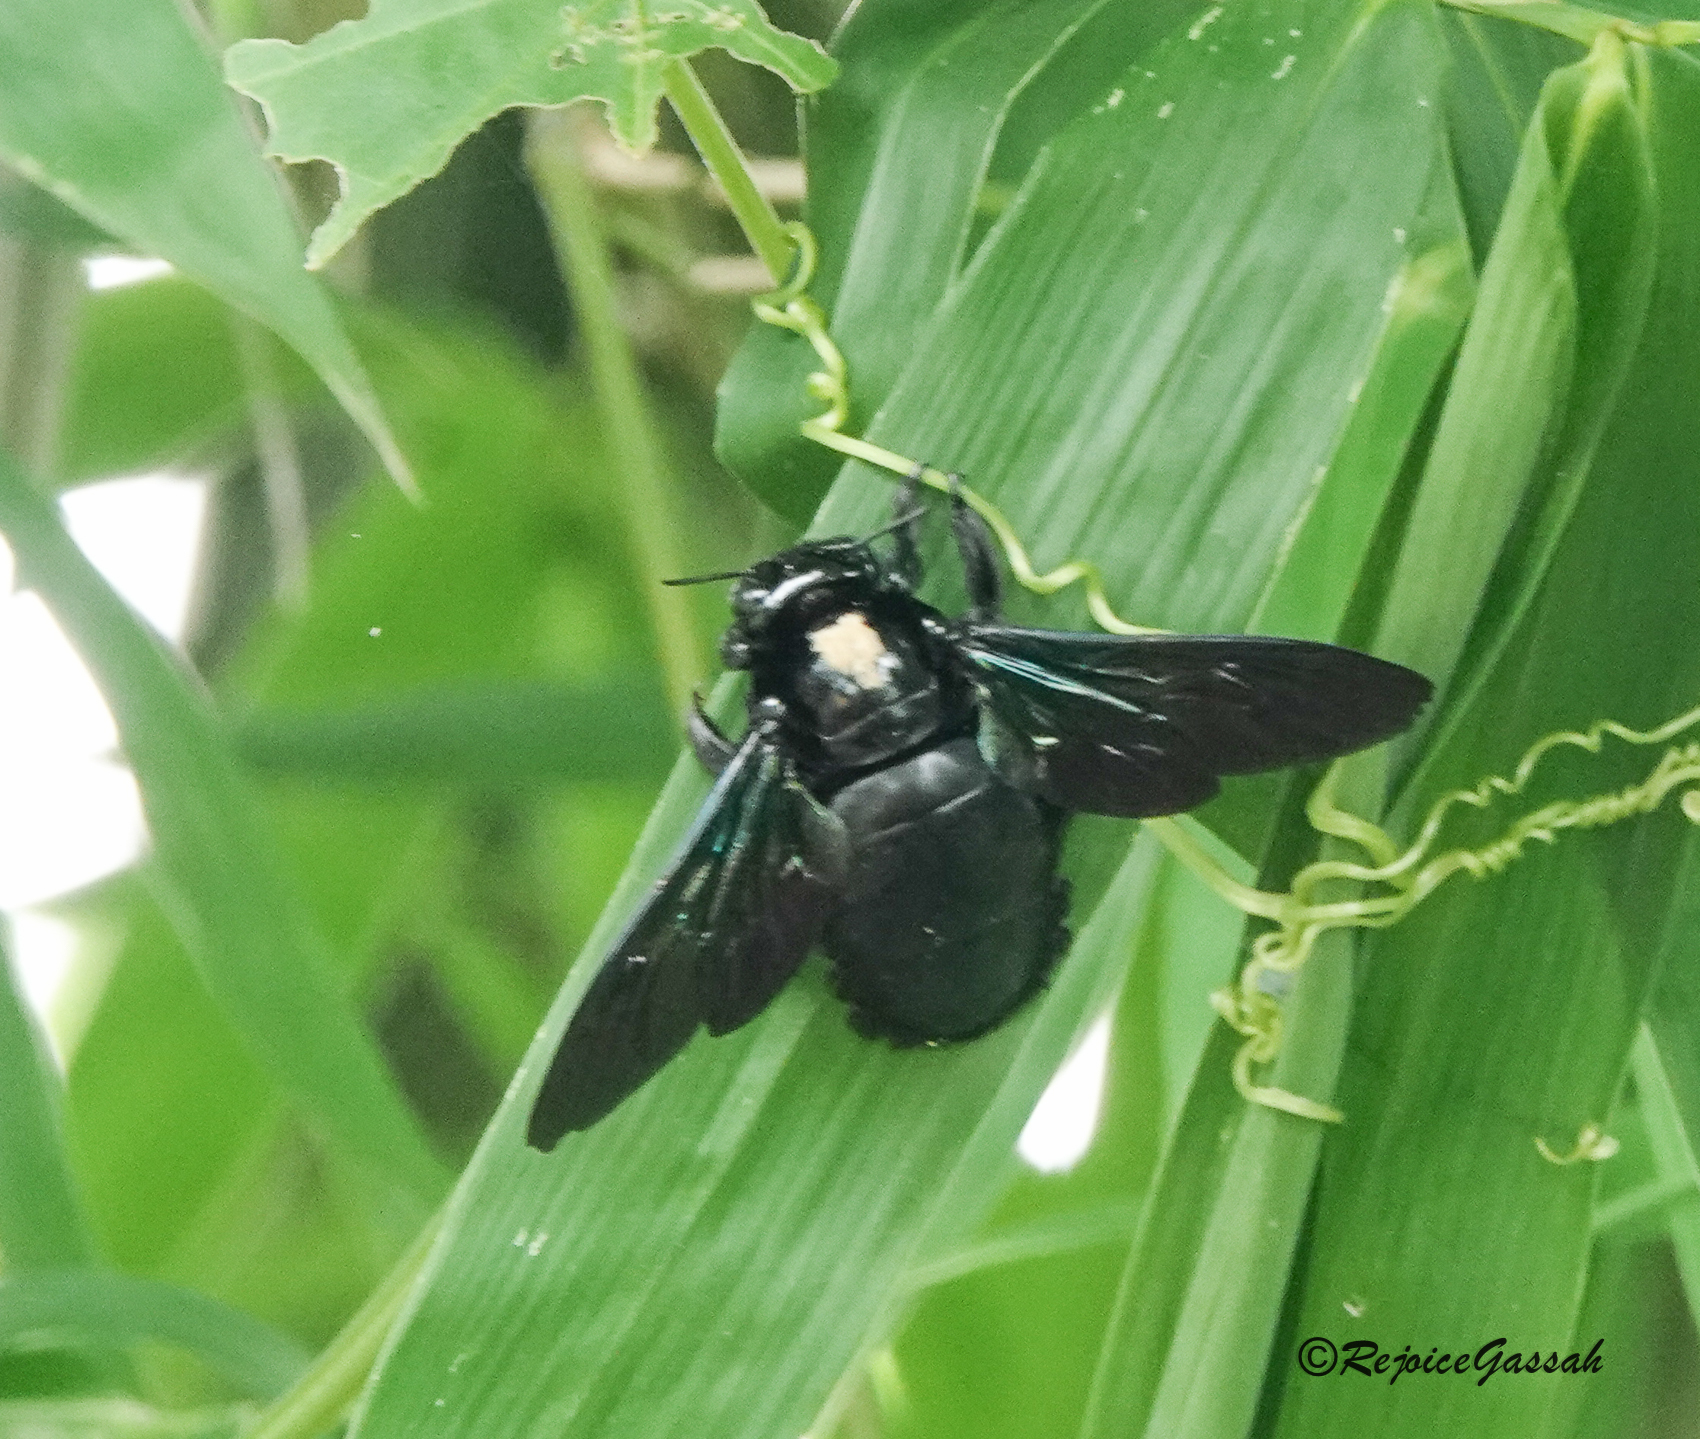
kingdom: Animalia
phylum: Arthropoda
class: Insecta
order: Hymenoptera
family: Apidae
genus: Xylocopa
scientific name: Xylocopa tenuiscapa
